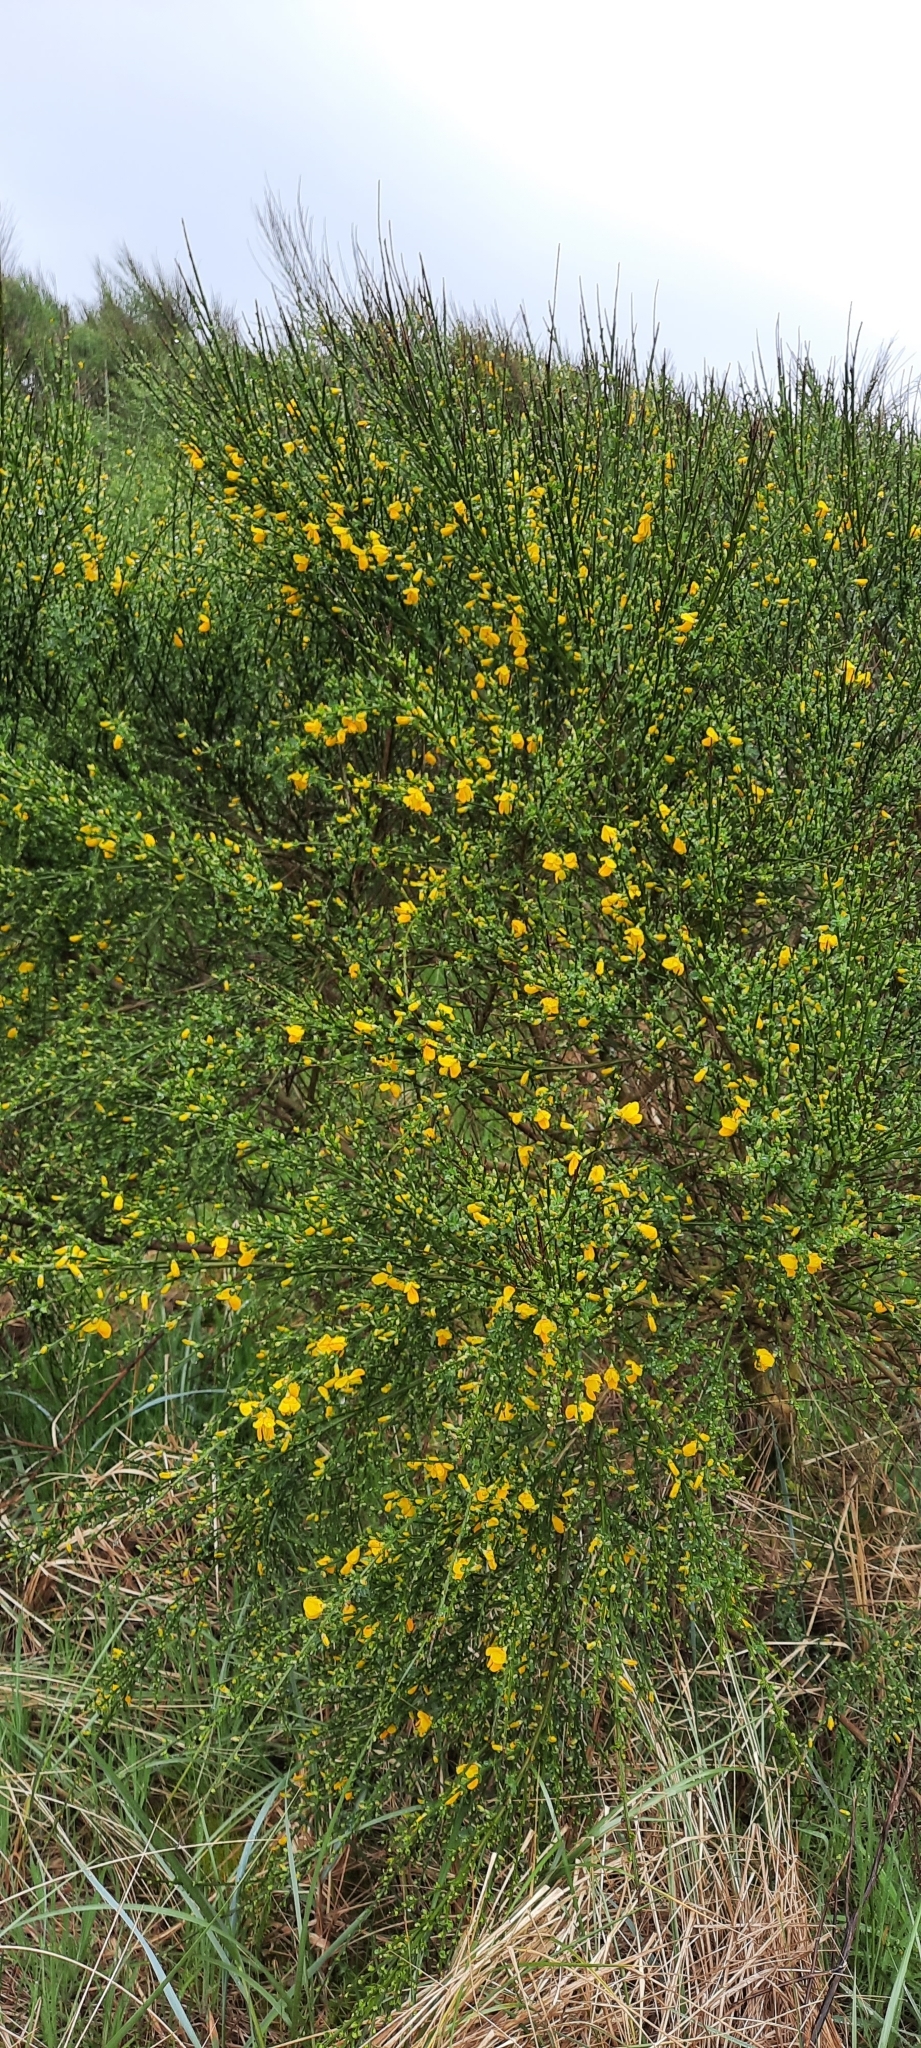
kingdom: Plantae
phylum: Tracheophyta
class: Magnoliopsida
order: Fabales
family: Fabaceae
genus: Cytisus
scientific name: Cytisus scoparius
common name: Scotch broom
